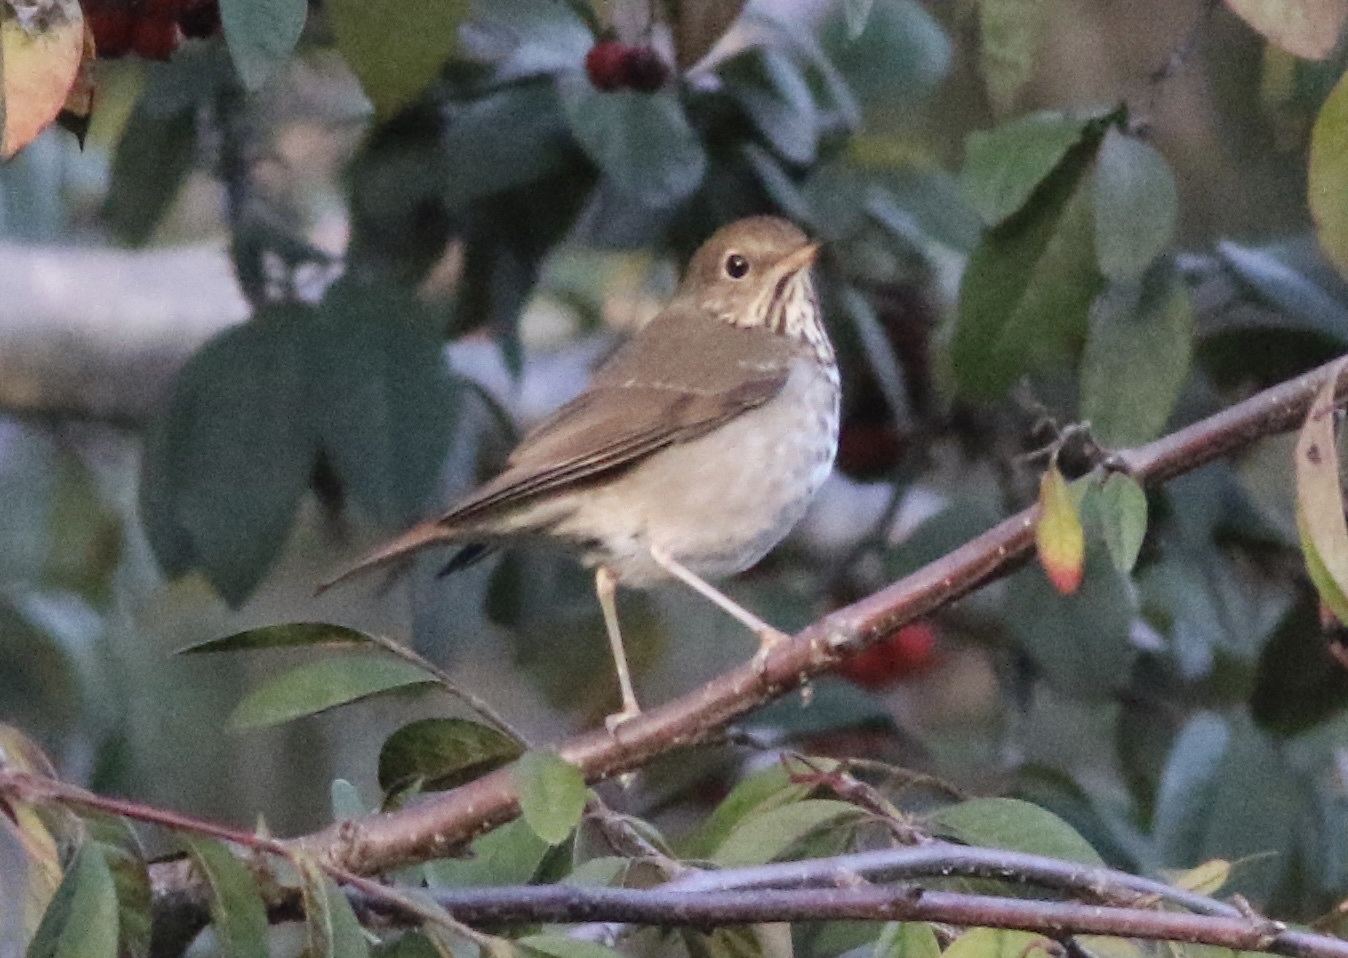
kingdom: Animalia
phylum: Chordata
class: Aves
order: Passeriformes
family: Turdidae
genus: Catharus
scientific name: Catharus guttatus
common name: Hermit thrush
